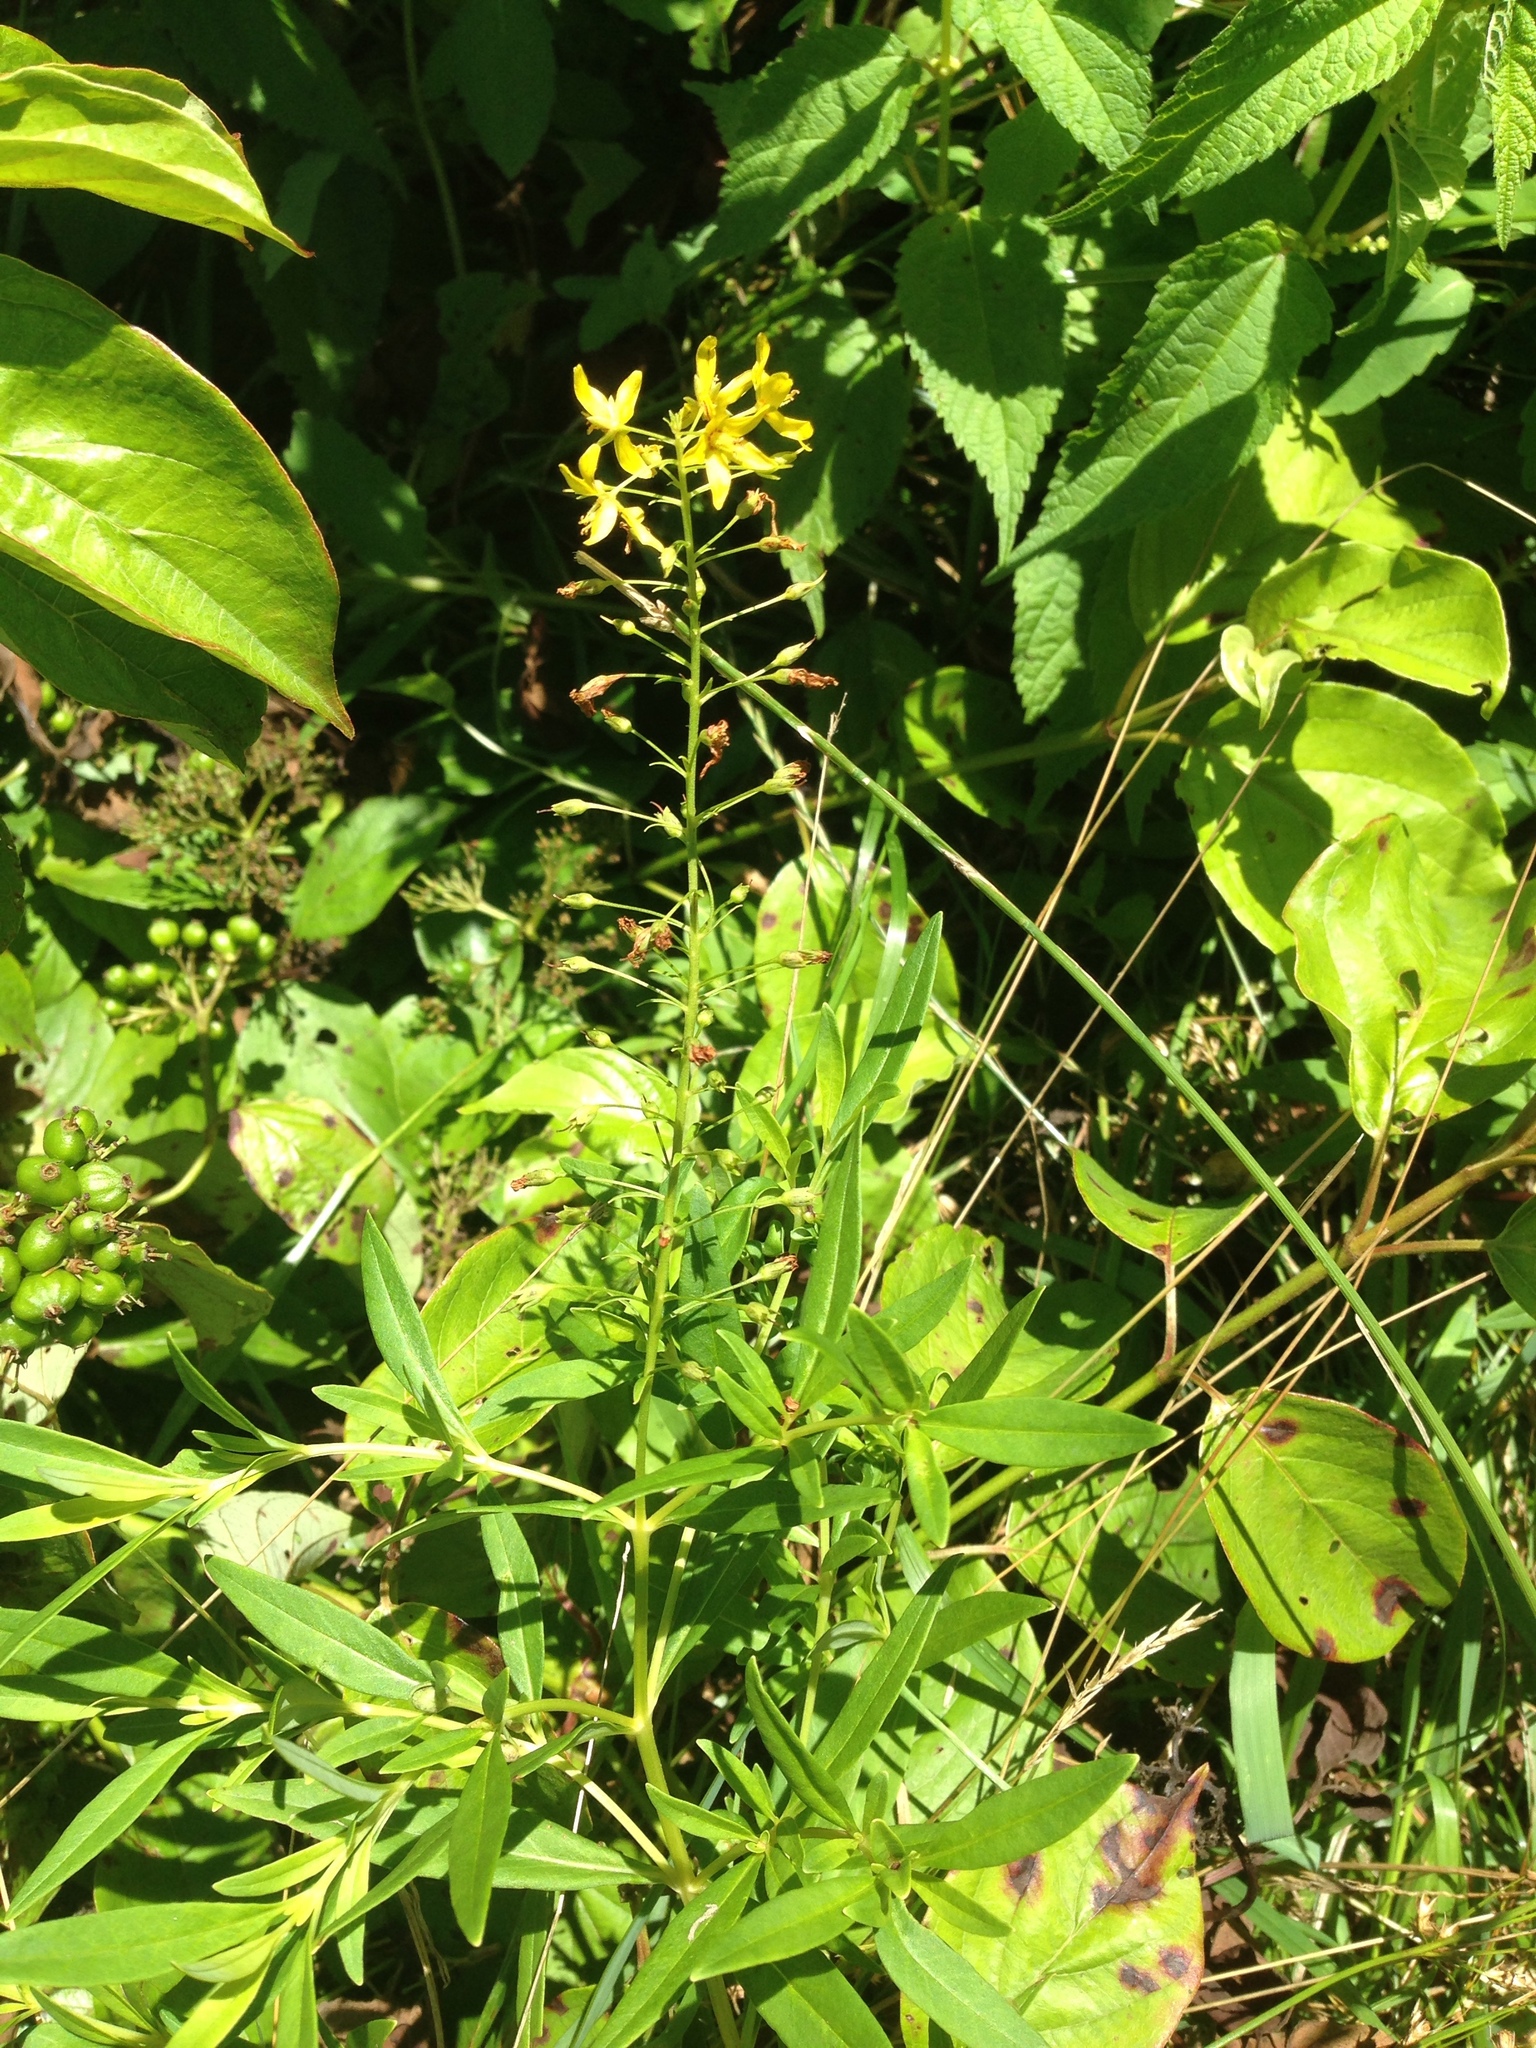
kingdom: Plantae
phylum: Tracheophyta
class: Magnoliopsida
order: Ericales
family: Primulaceae
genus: Lysimachia
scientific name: Lysimachia terrestris
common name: Lake loosestrife
